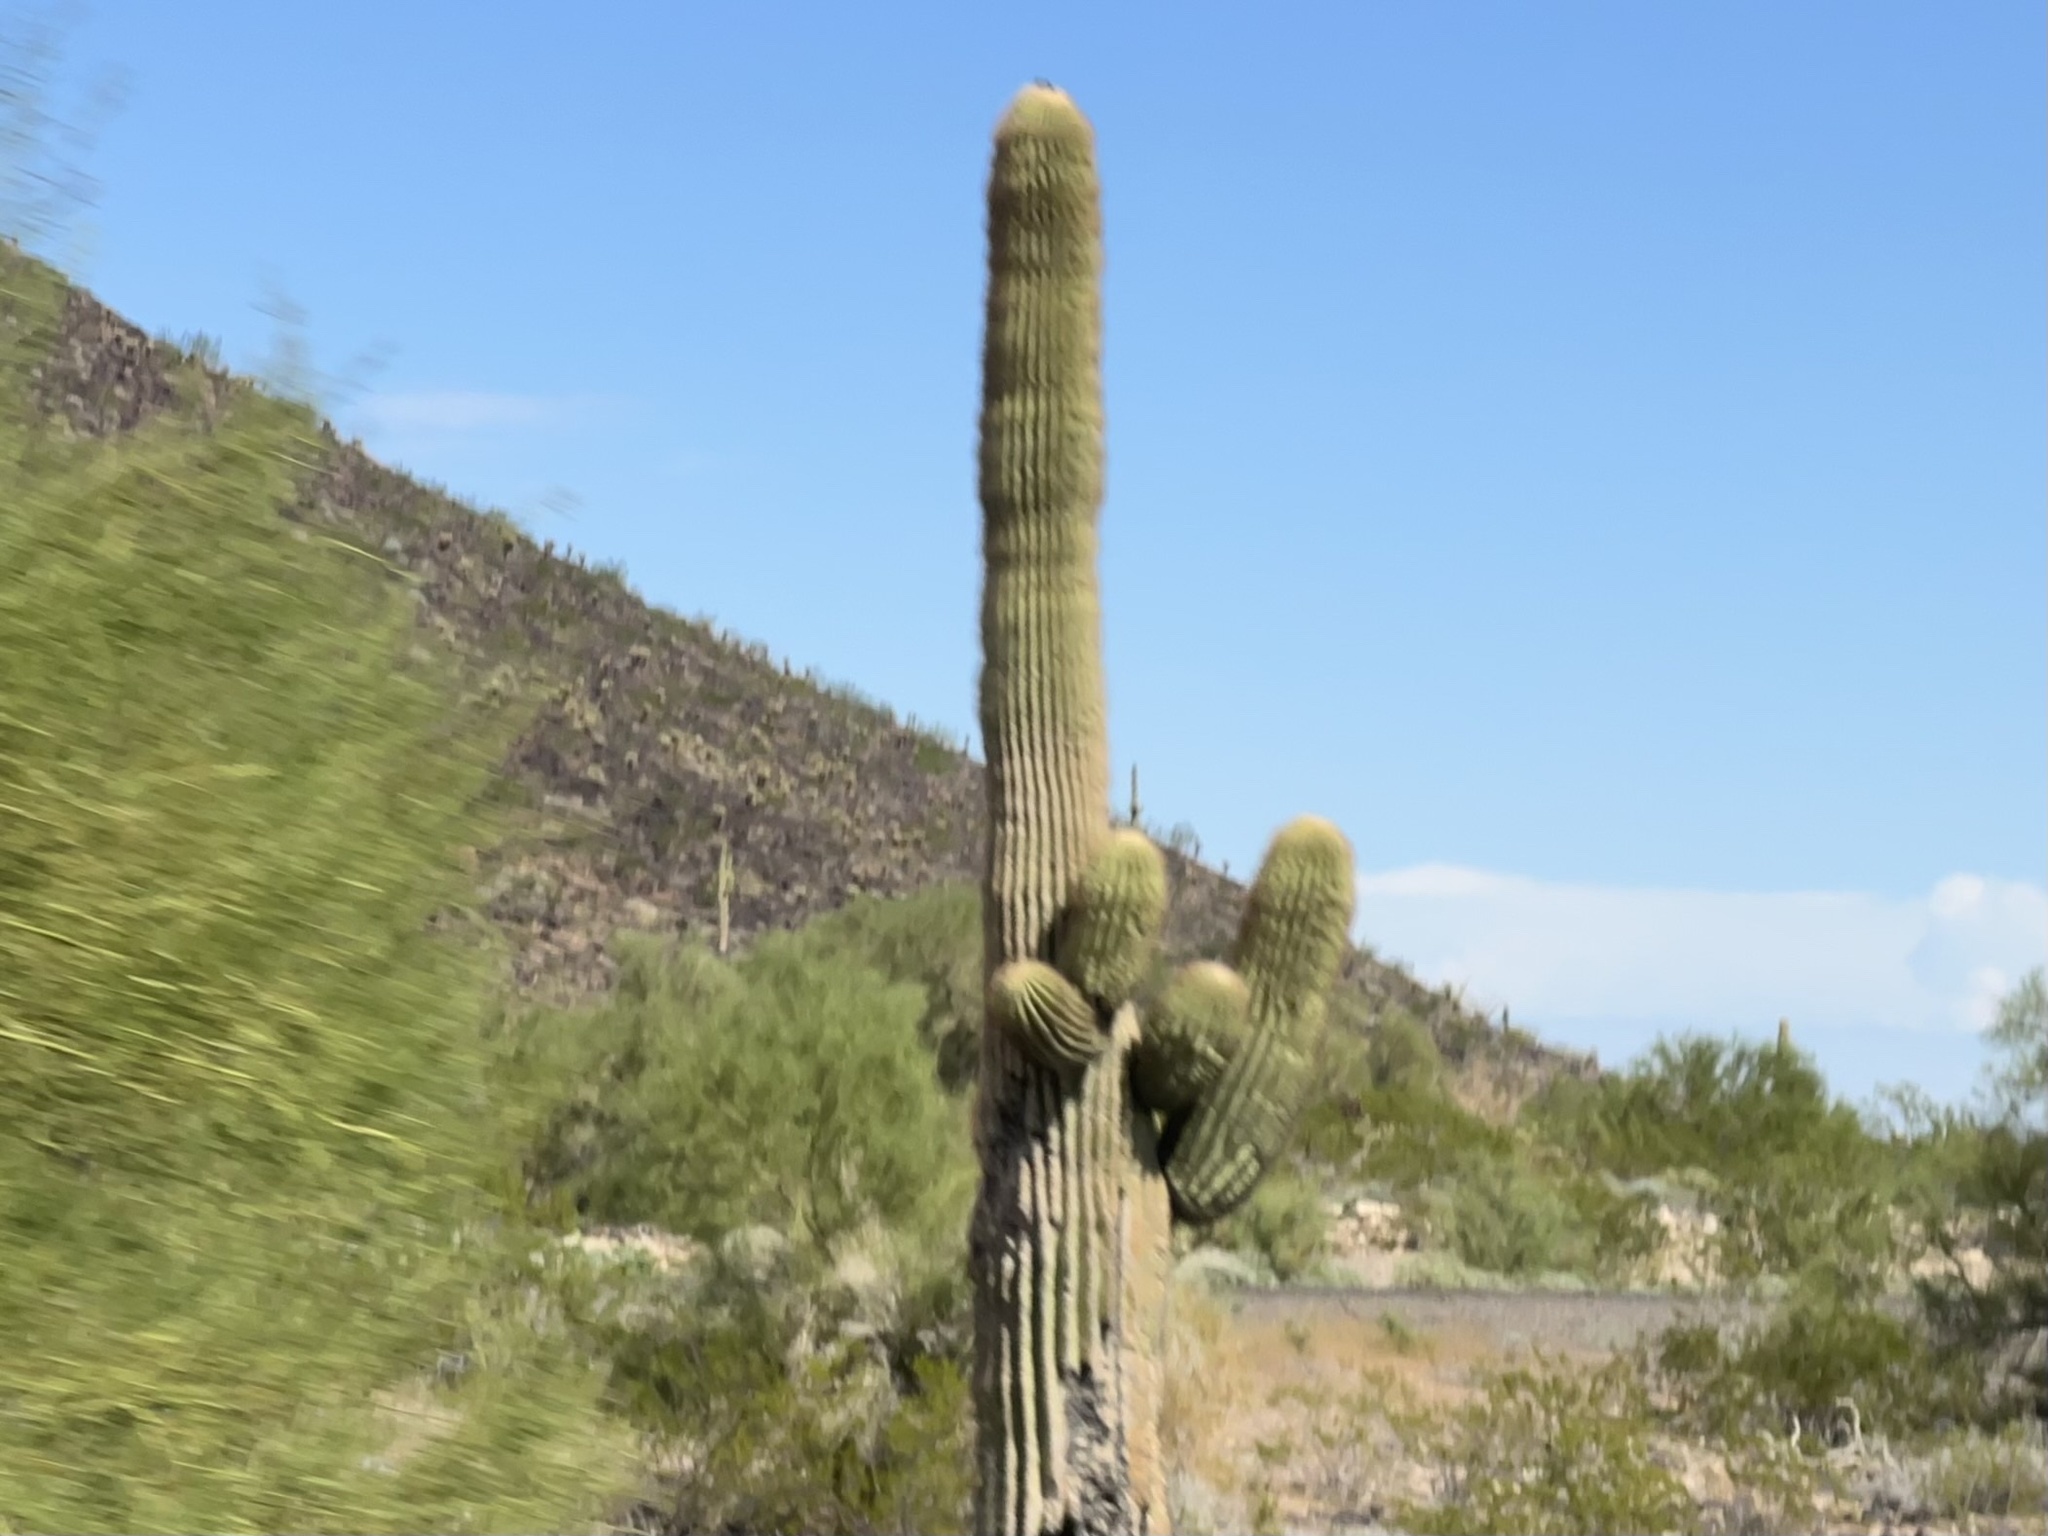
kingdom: Plantae
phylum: Tracheophyta
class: Magnoliopsida
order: Caryophyllales
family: Cactaceae
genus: Carnegiea
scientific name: Carnegiea gigantea
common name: Saguaro
